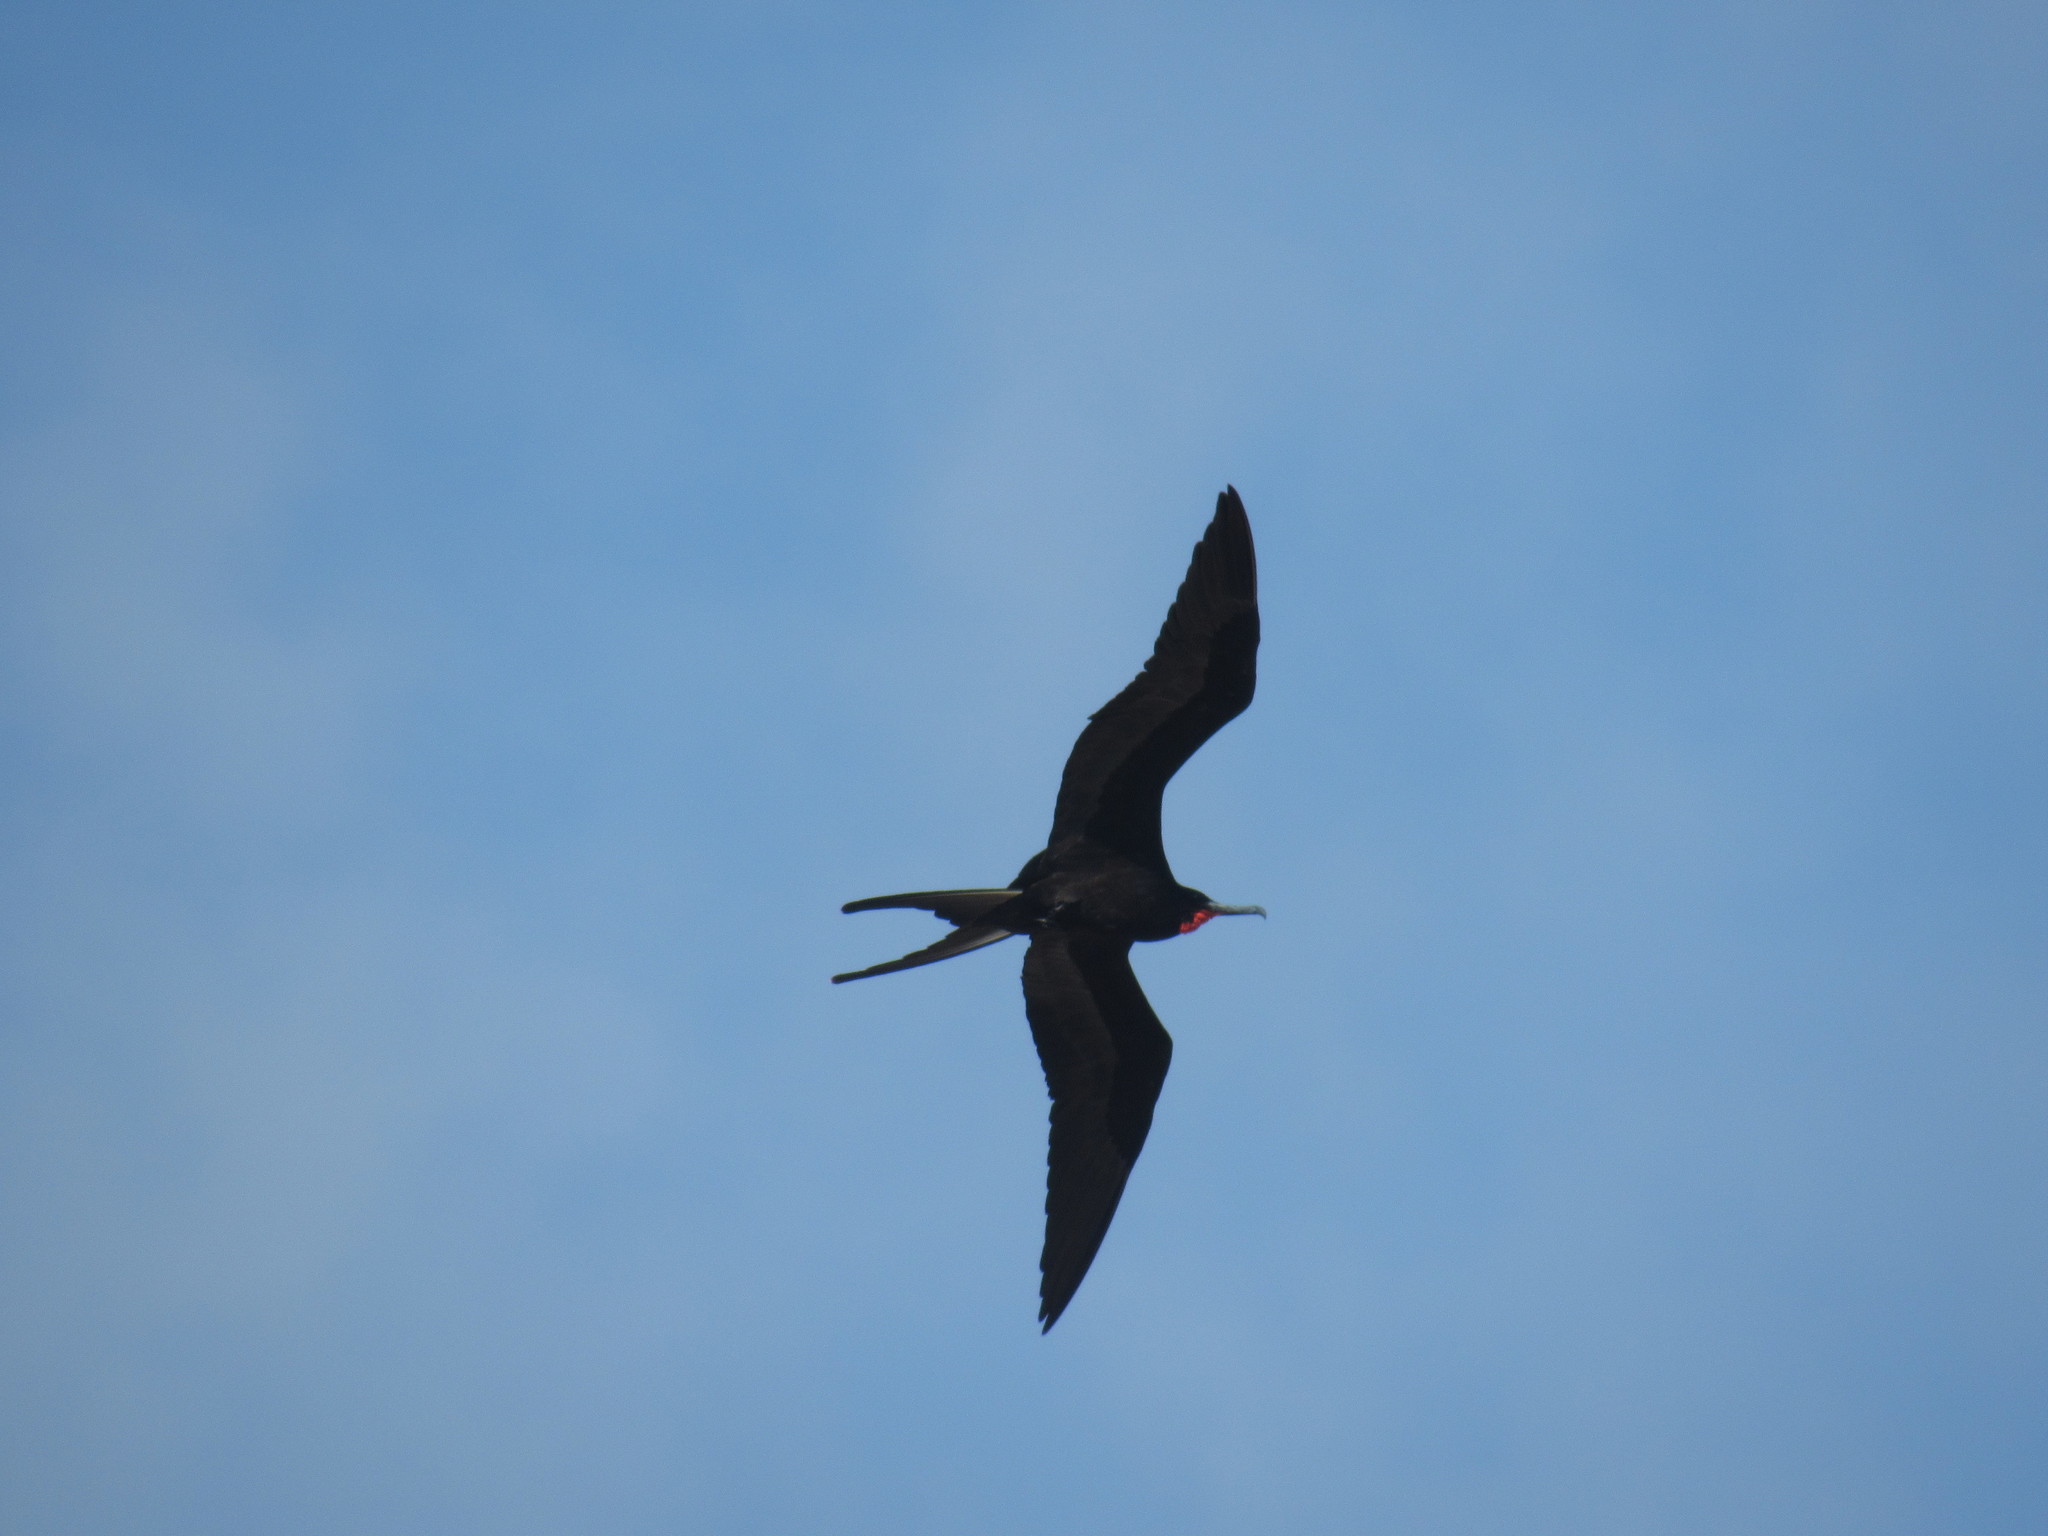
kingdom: Animalia
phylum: Chordata
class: Aves
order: Suliformes
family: Fregatidae
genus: Fregata
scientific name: Fregata magnificens
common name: Magnificent frigatebird
